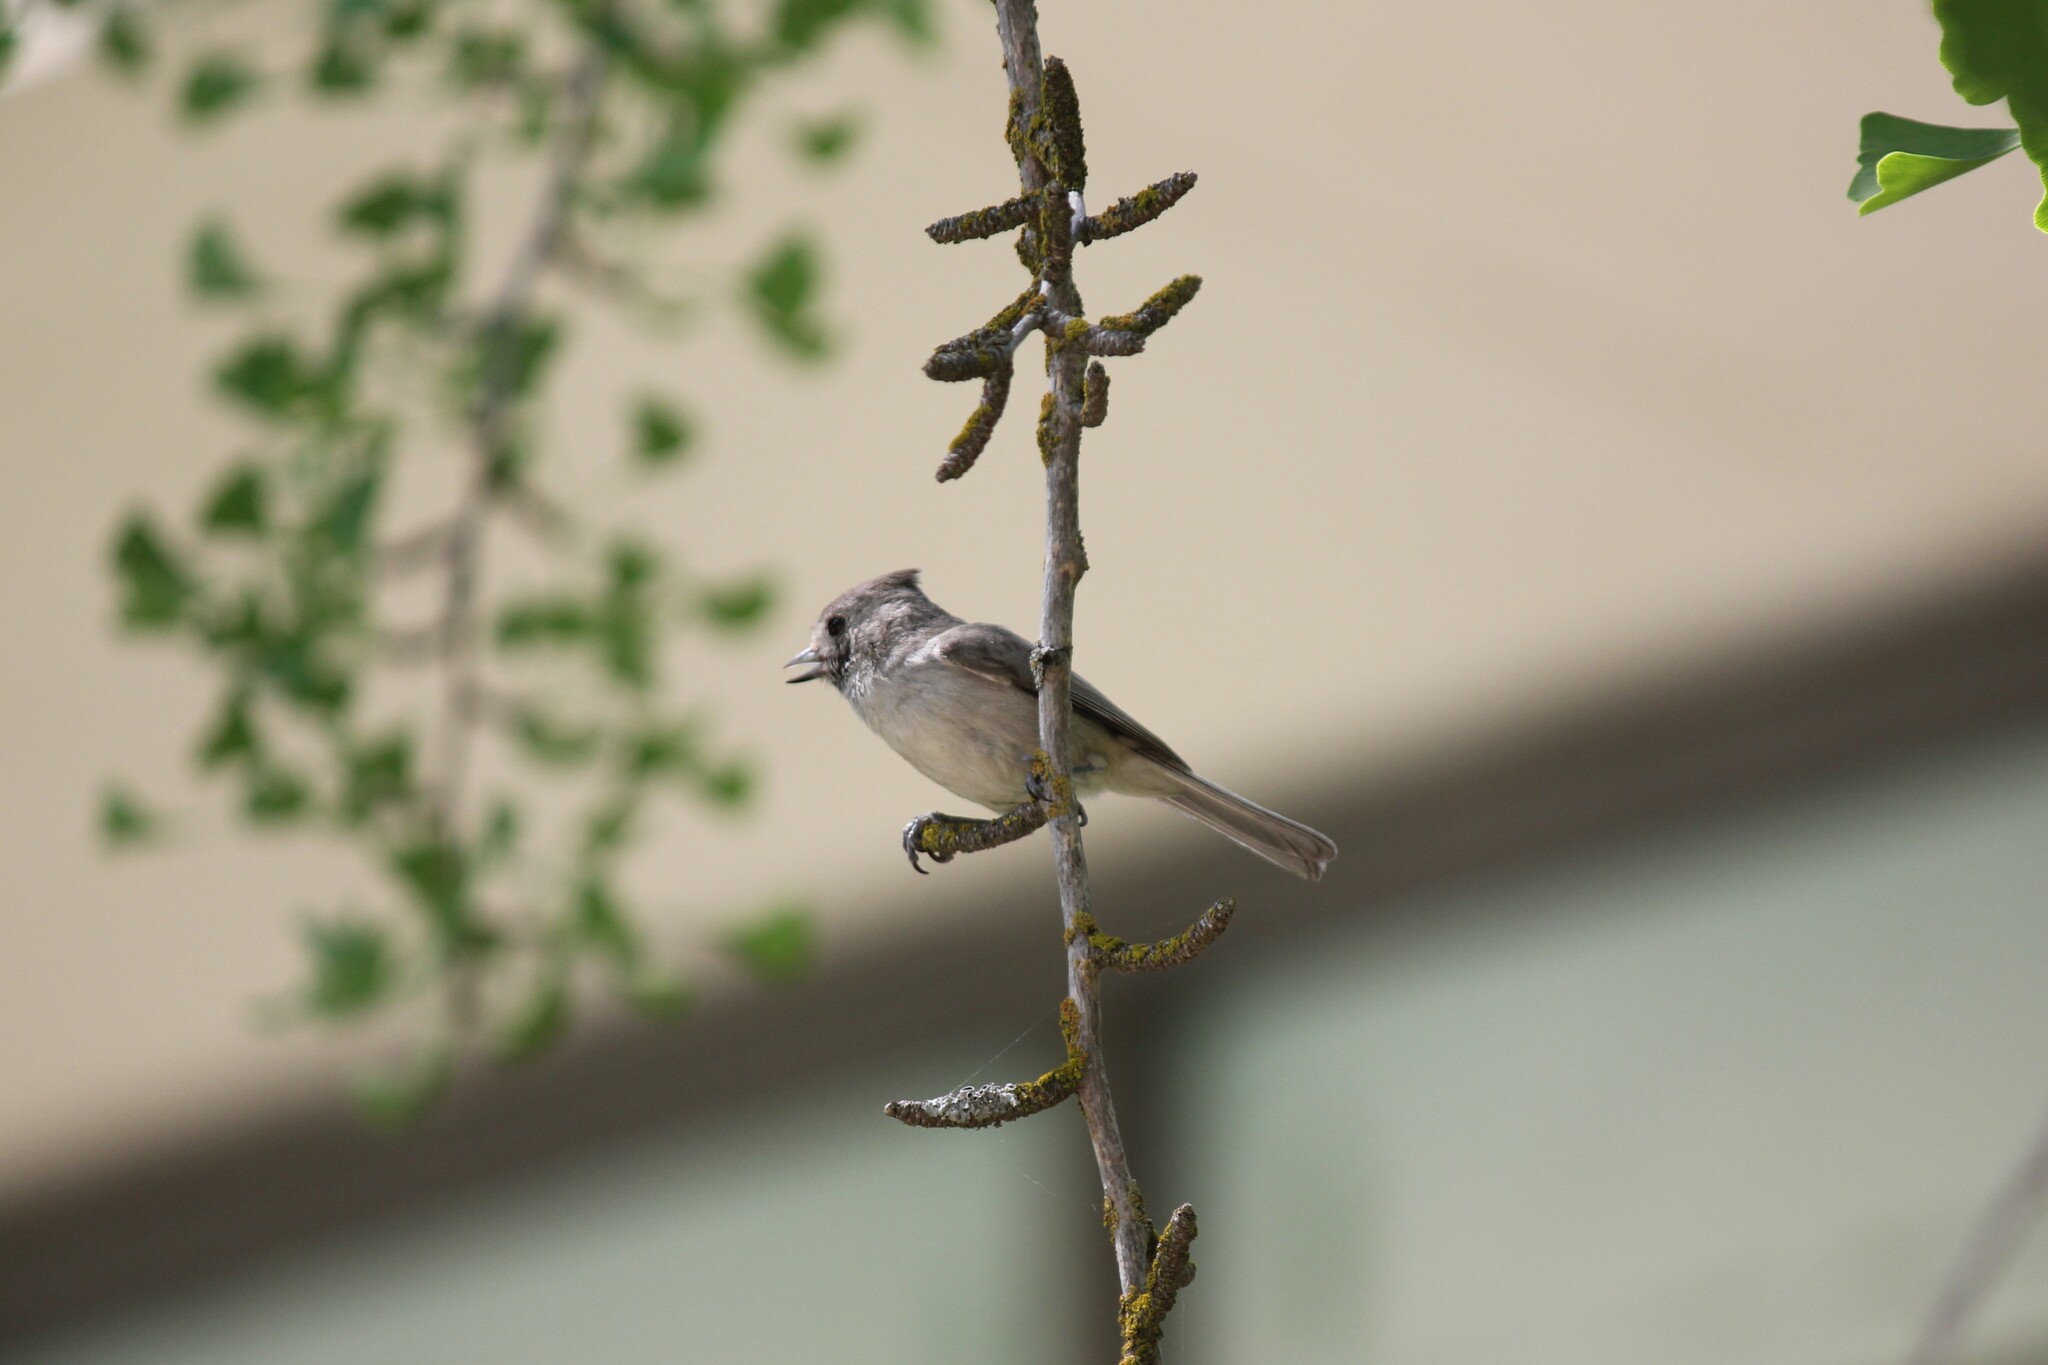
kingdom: Animalia
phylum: Chordata
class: Aves
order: Passeriformes
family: Paridae
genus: Baeolophus
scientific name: Baeolophus inornatus
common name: Oak titmouse
